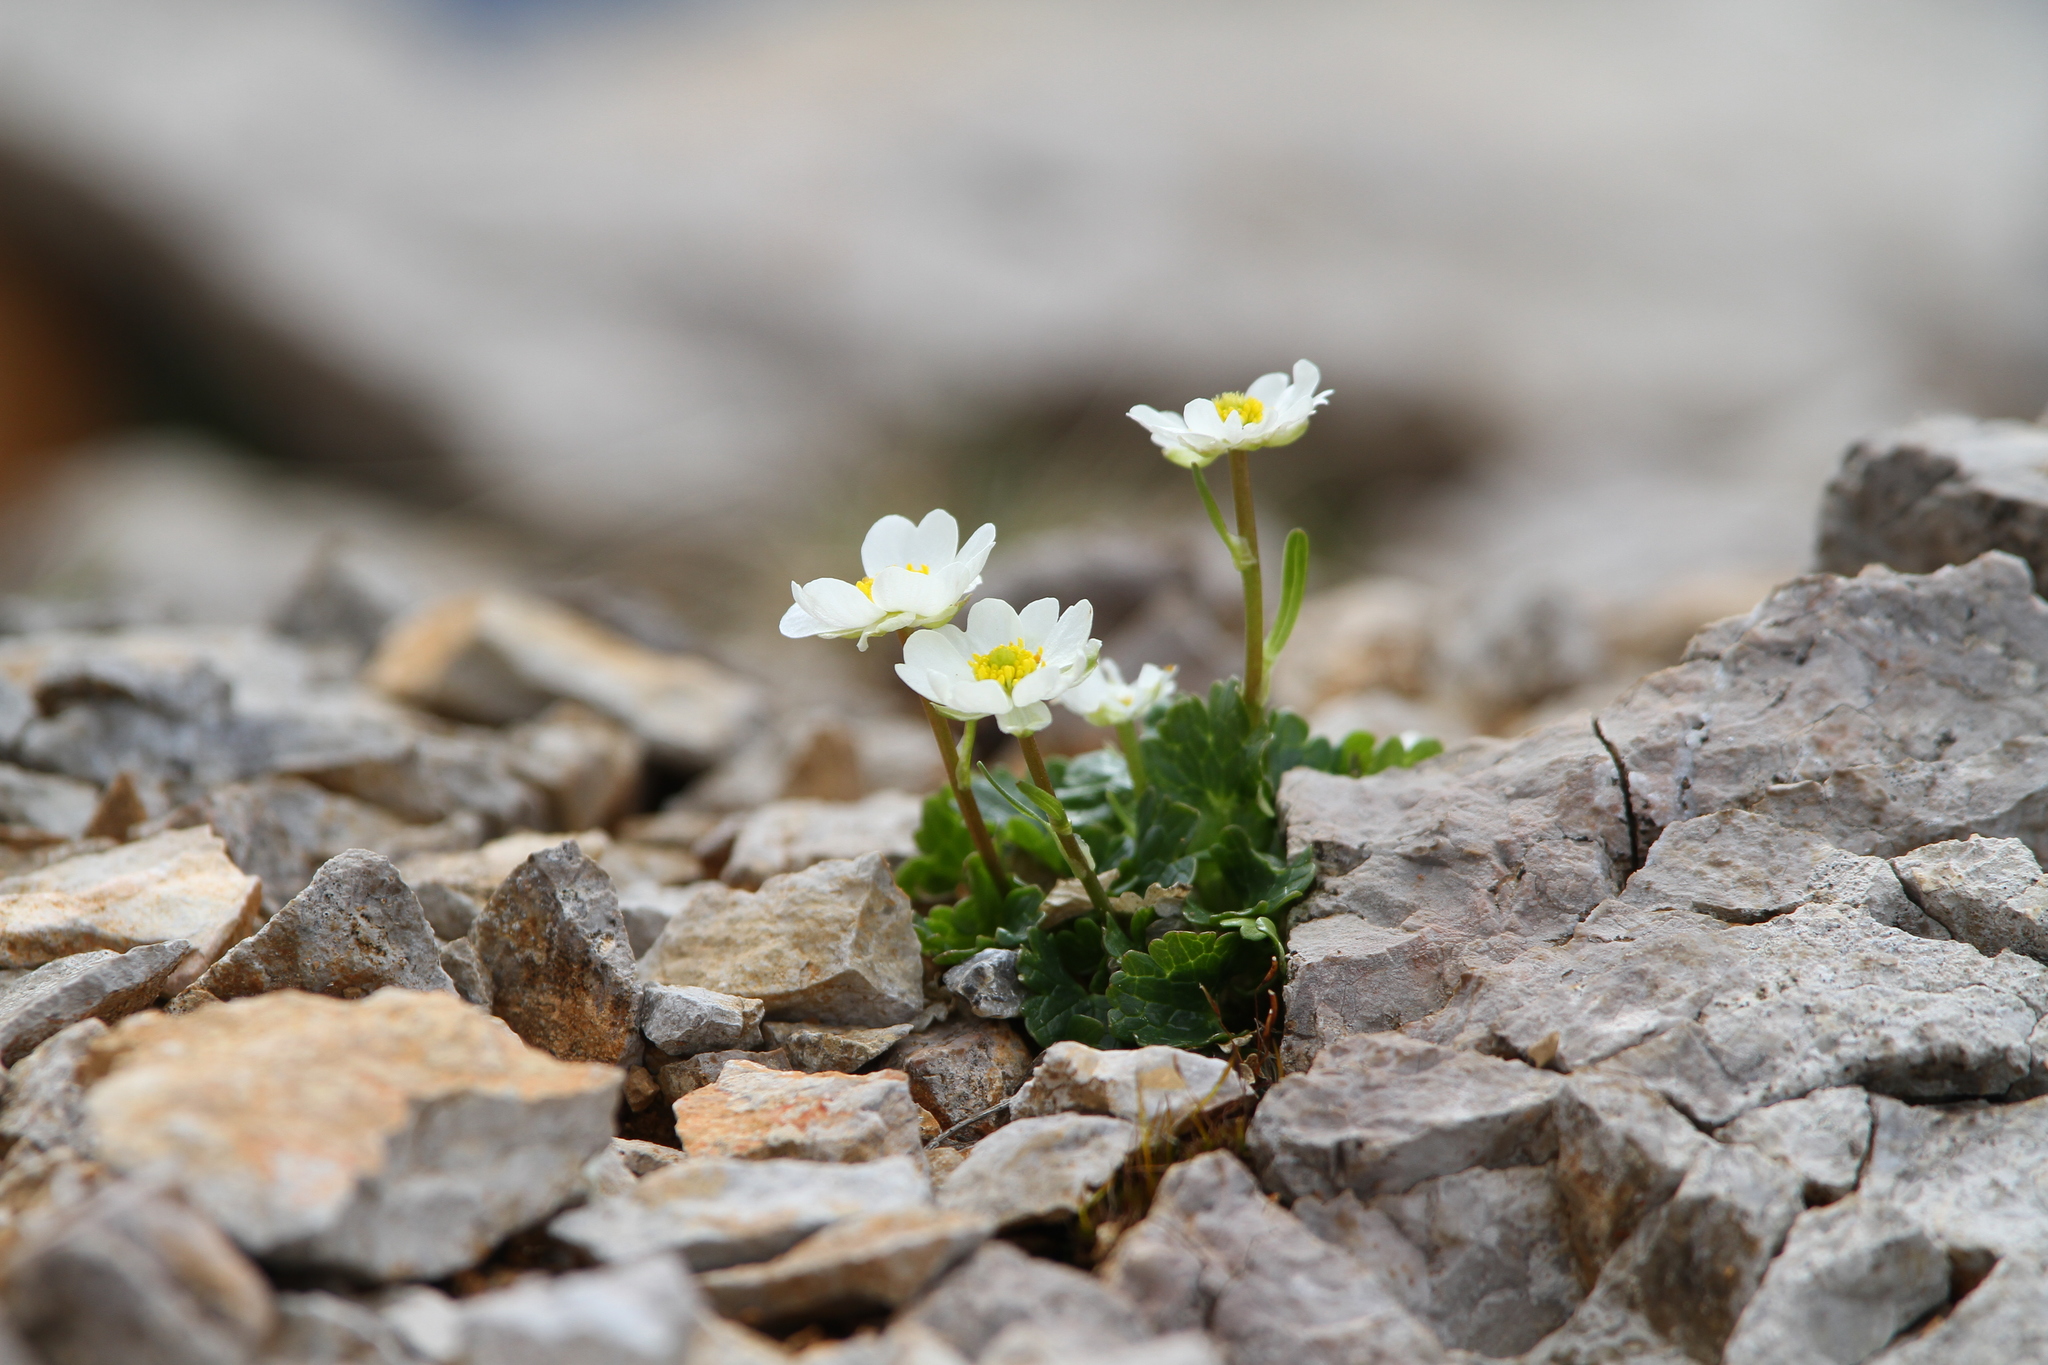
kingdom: Plantae
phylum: Tracheophyta
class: Magnoliopsida
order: Ranunculales
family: Ranunculaceae
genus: Ranunculus
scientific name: Ranunculus alpestris
